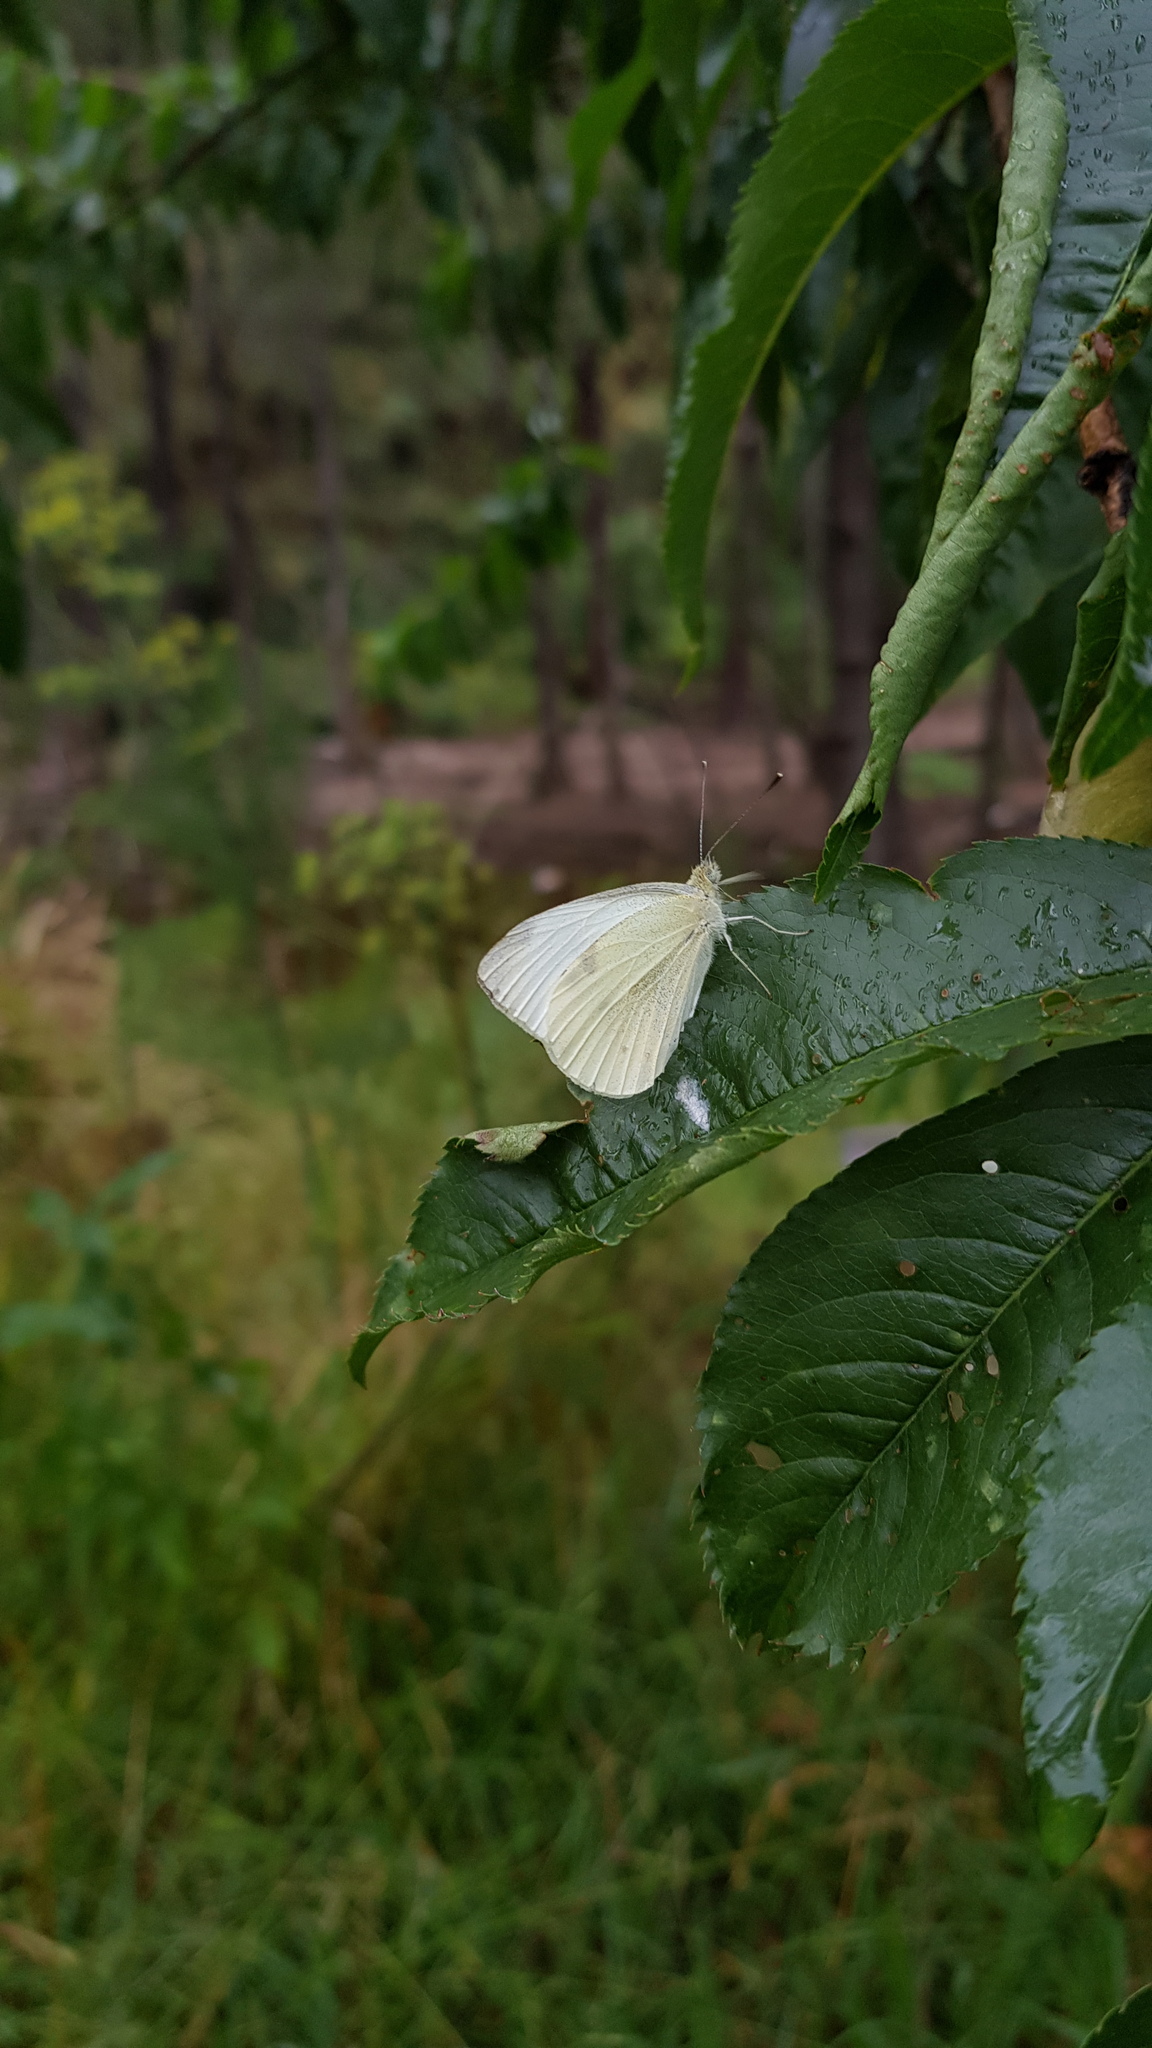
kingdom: Animalia
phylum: Arthropoda
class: Insecta
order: Lepidoptera
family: Pieridae
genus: Pieris
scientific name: Pieris rapae
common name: Small white
